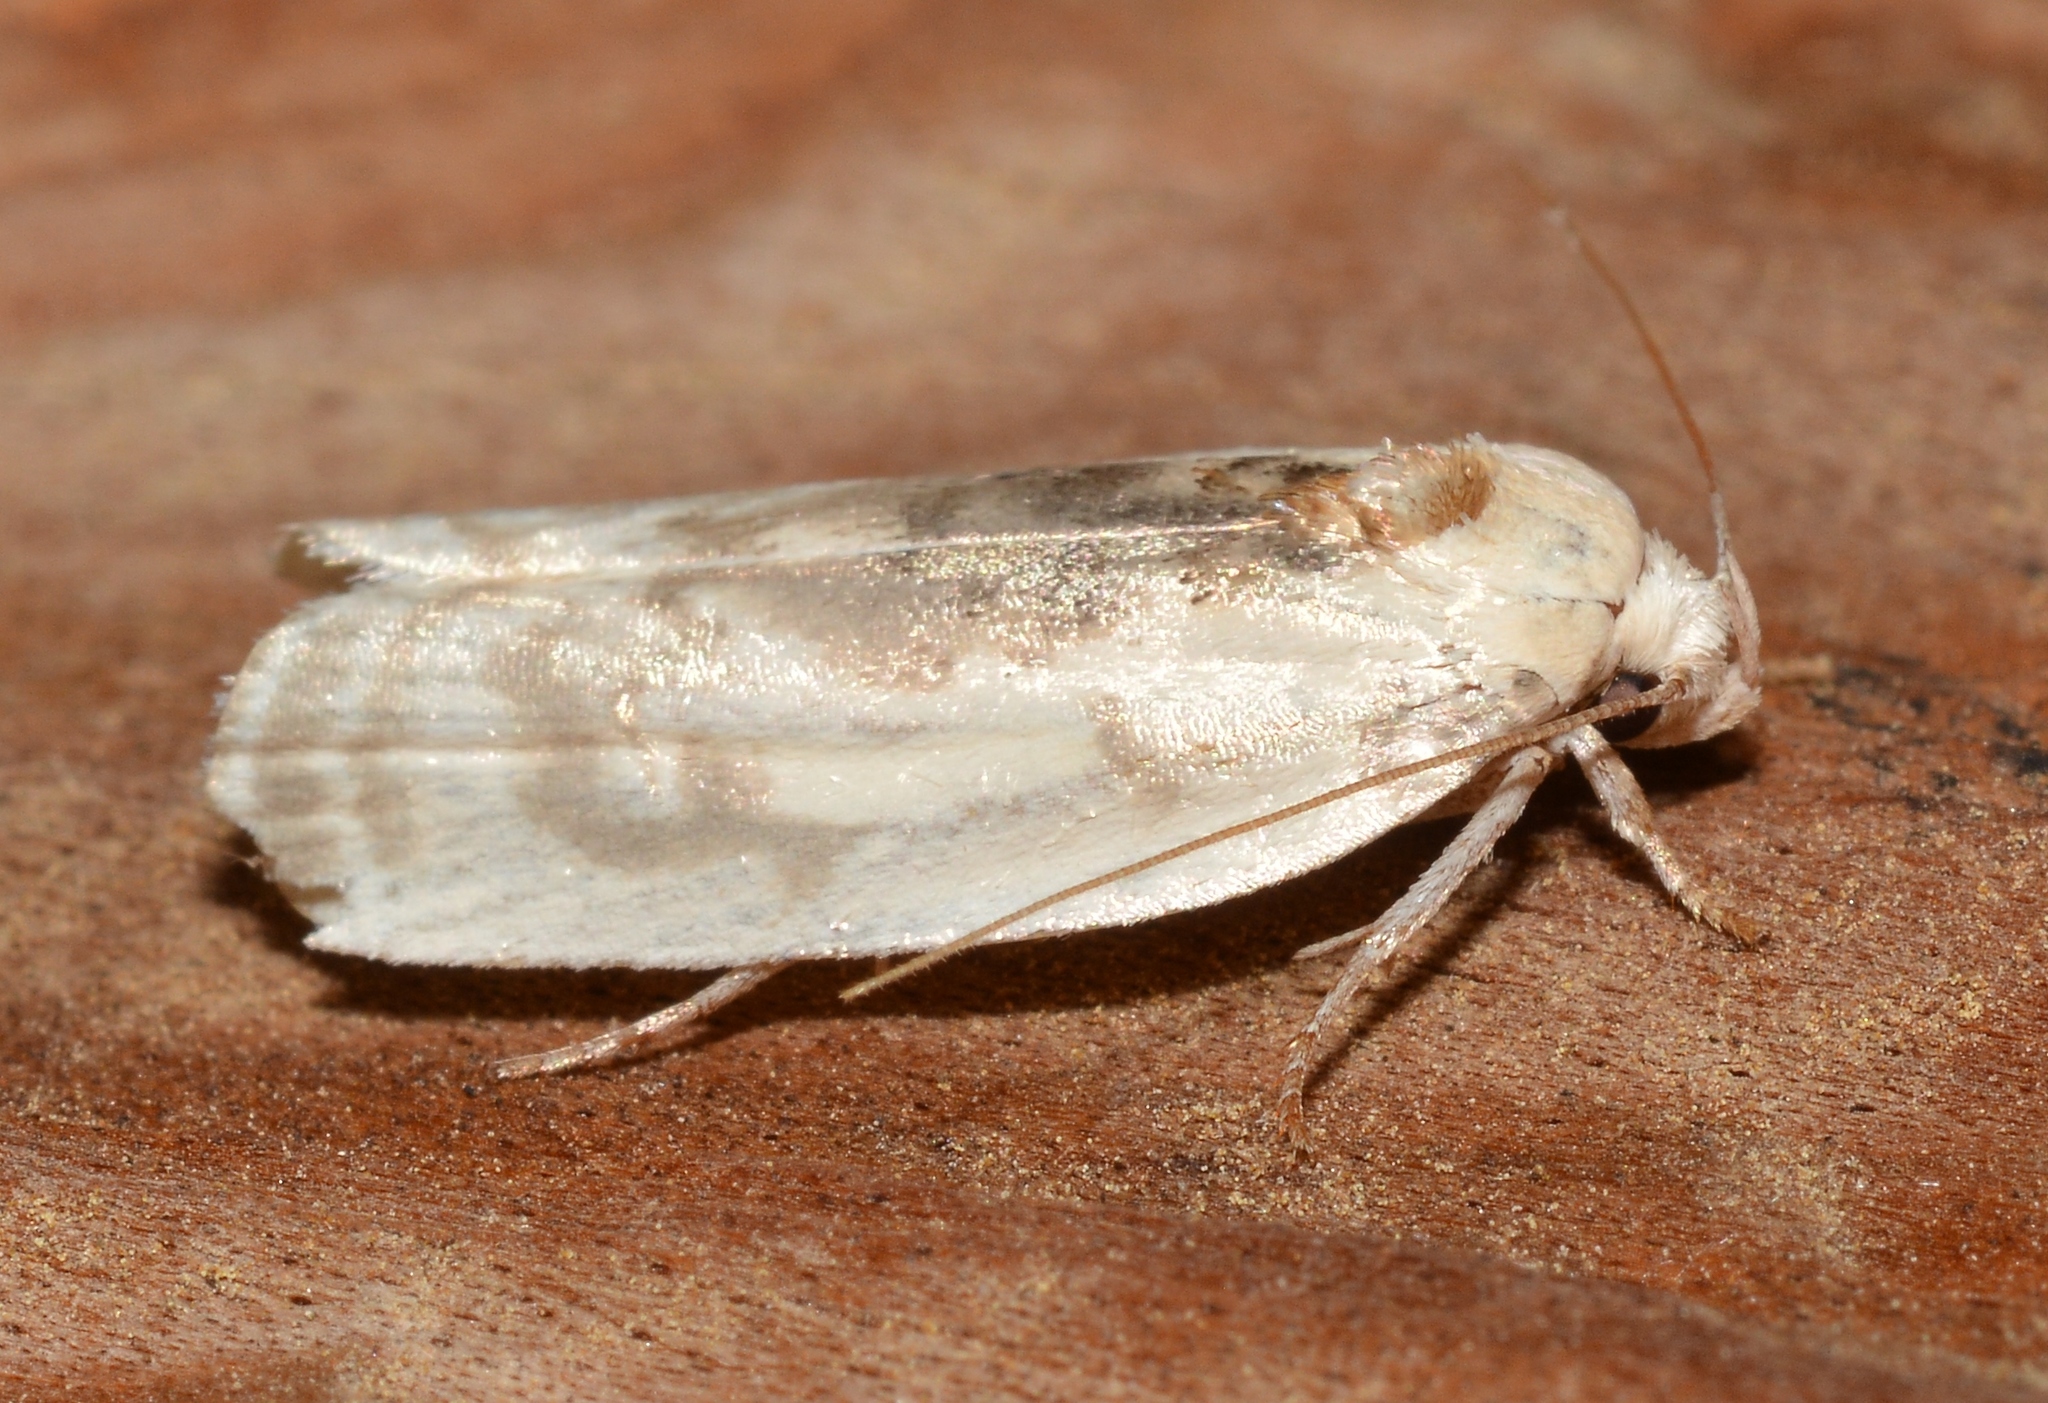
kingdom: Animalia
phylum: Arthropoda
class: Insecta
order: Lepidoptera
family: Depressariidae
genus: Antaeotricha
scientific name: Antaeotricha leucillana
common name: Pale gray bird-dropping moth
